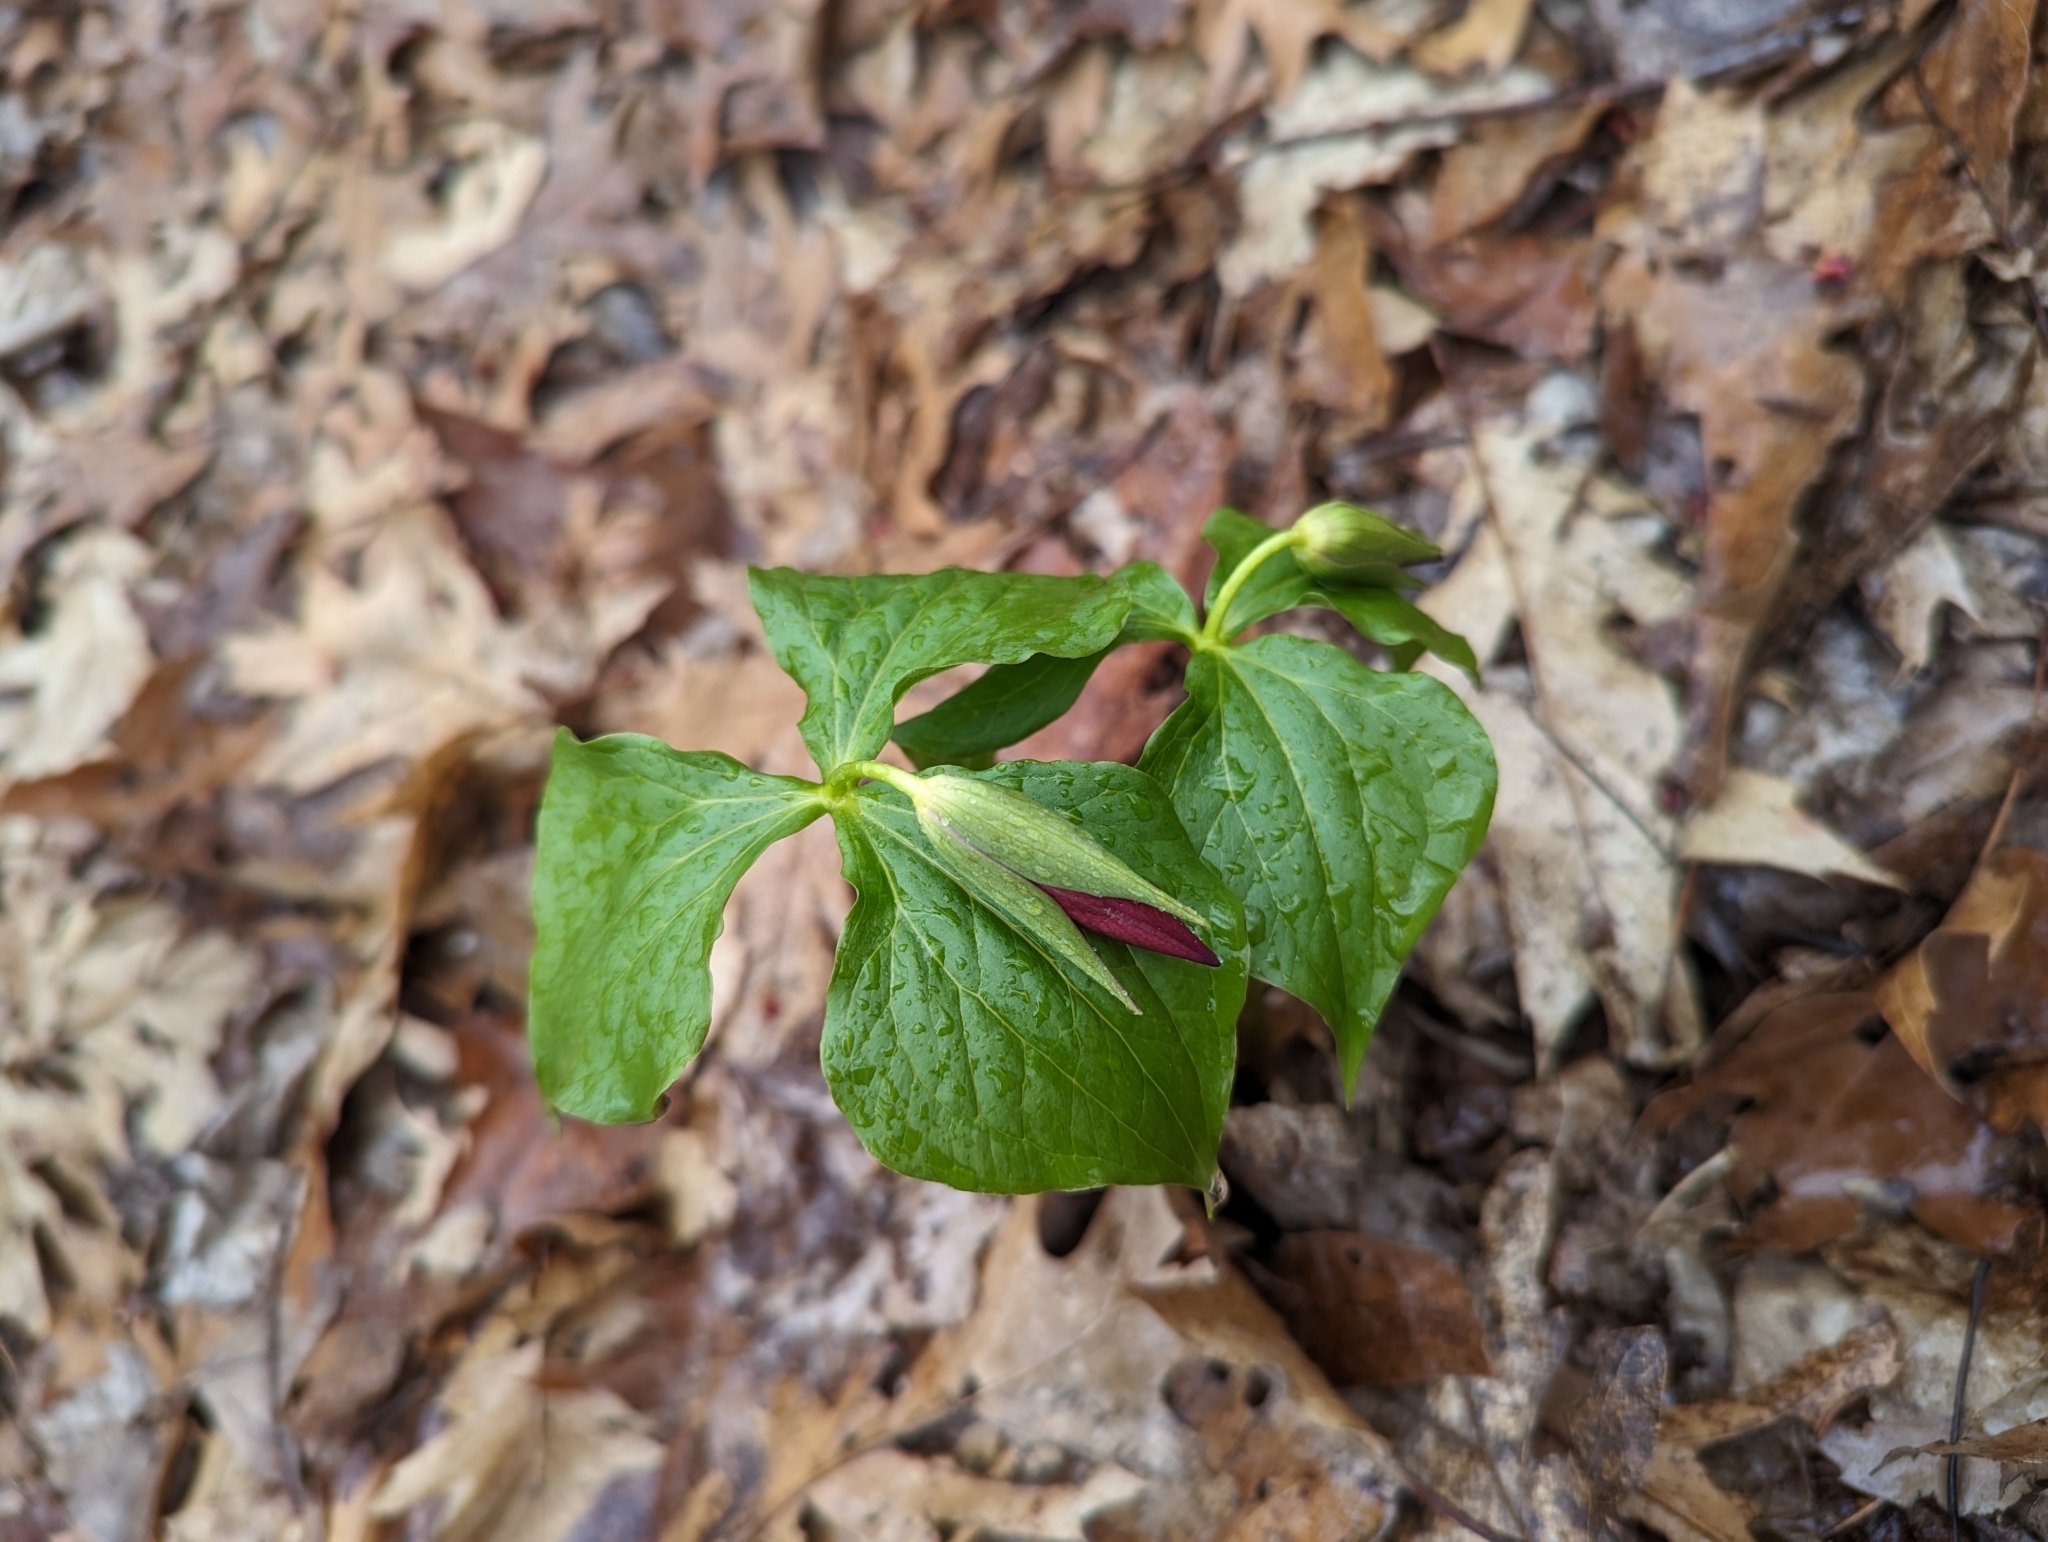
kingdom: Plantae
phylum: Tracheophyta
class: Liliopsida
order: Liliales
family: Melanthiaceae
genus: Trillium
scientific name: Trillium erectum
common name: Purple trillium
